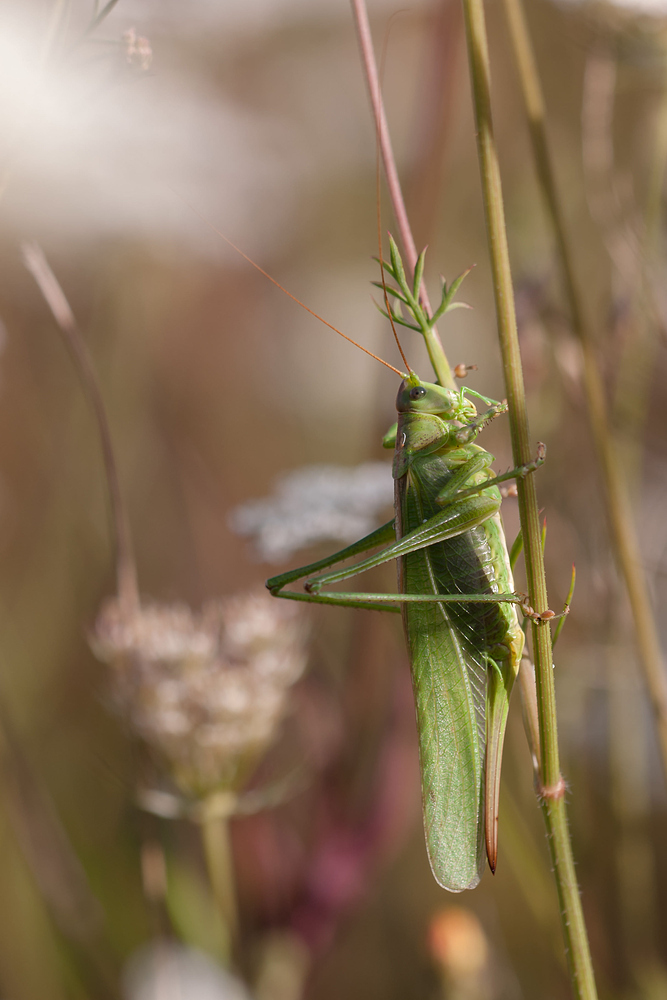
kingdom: Animalia
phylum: Arthropoda
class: Insecta
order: Orthoptera
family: Tettigoniidae
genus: Tettigonia
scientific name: Tettigonia viridissima
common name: Great green bush-cricket
